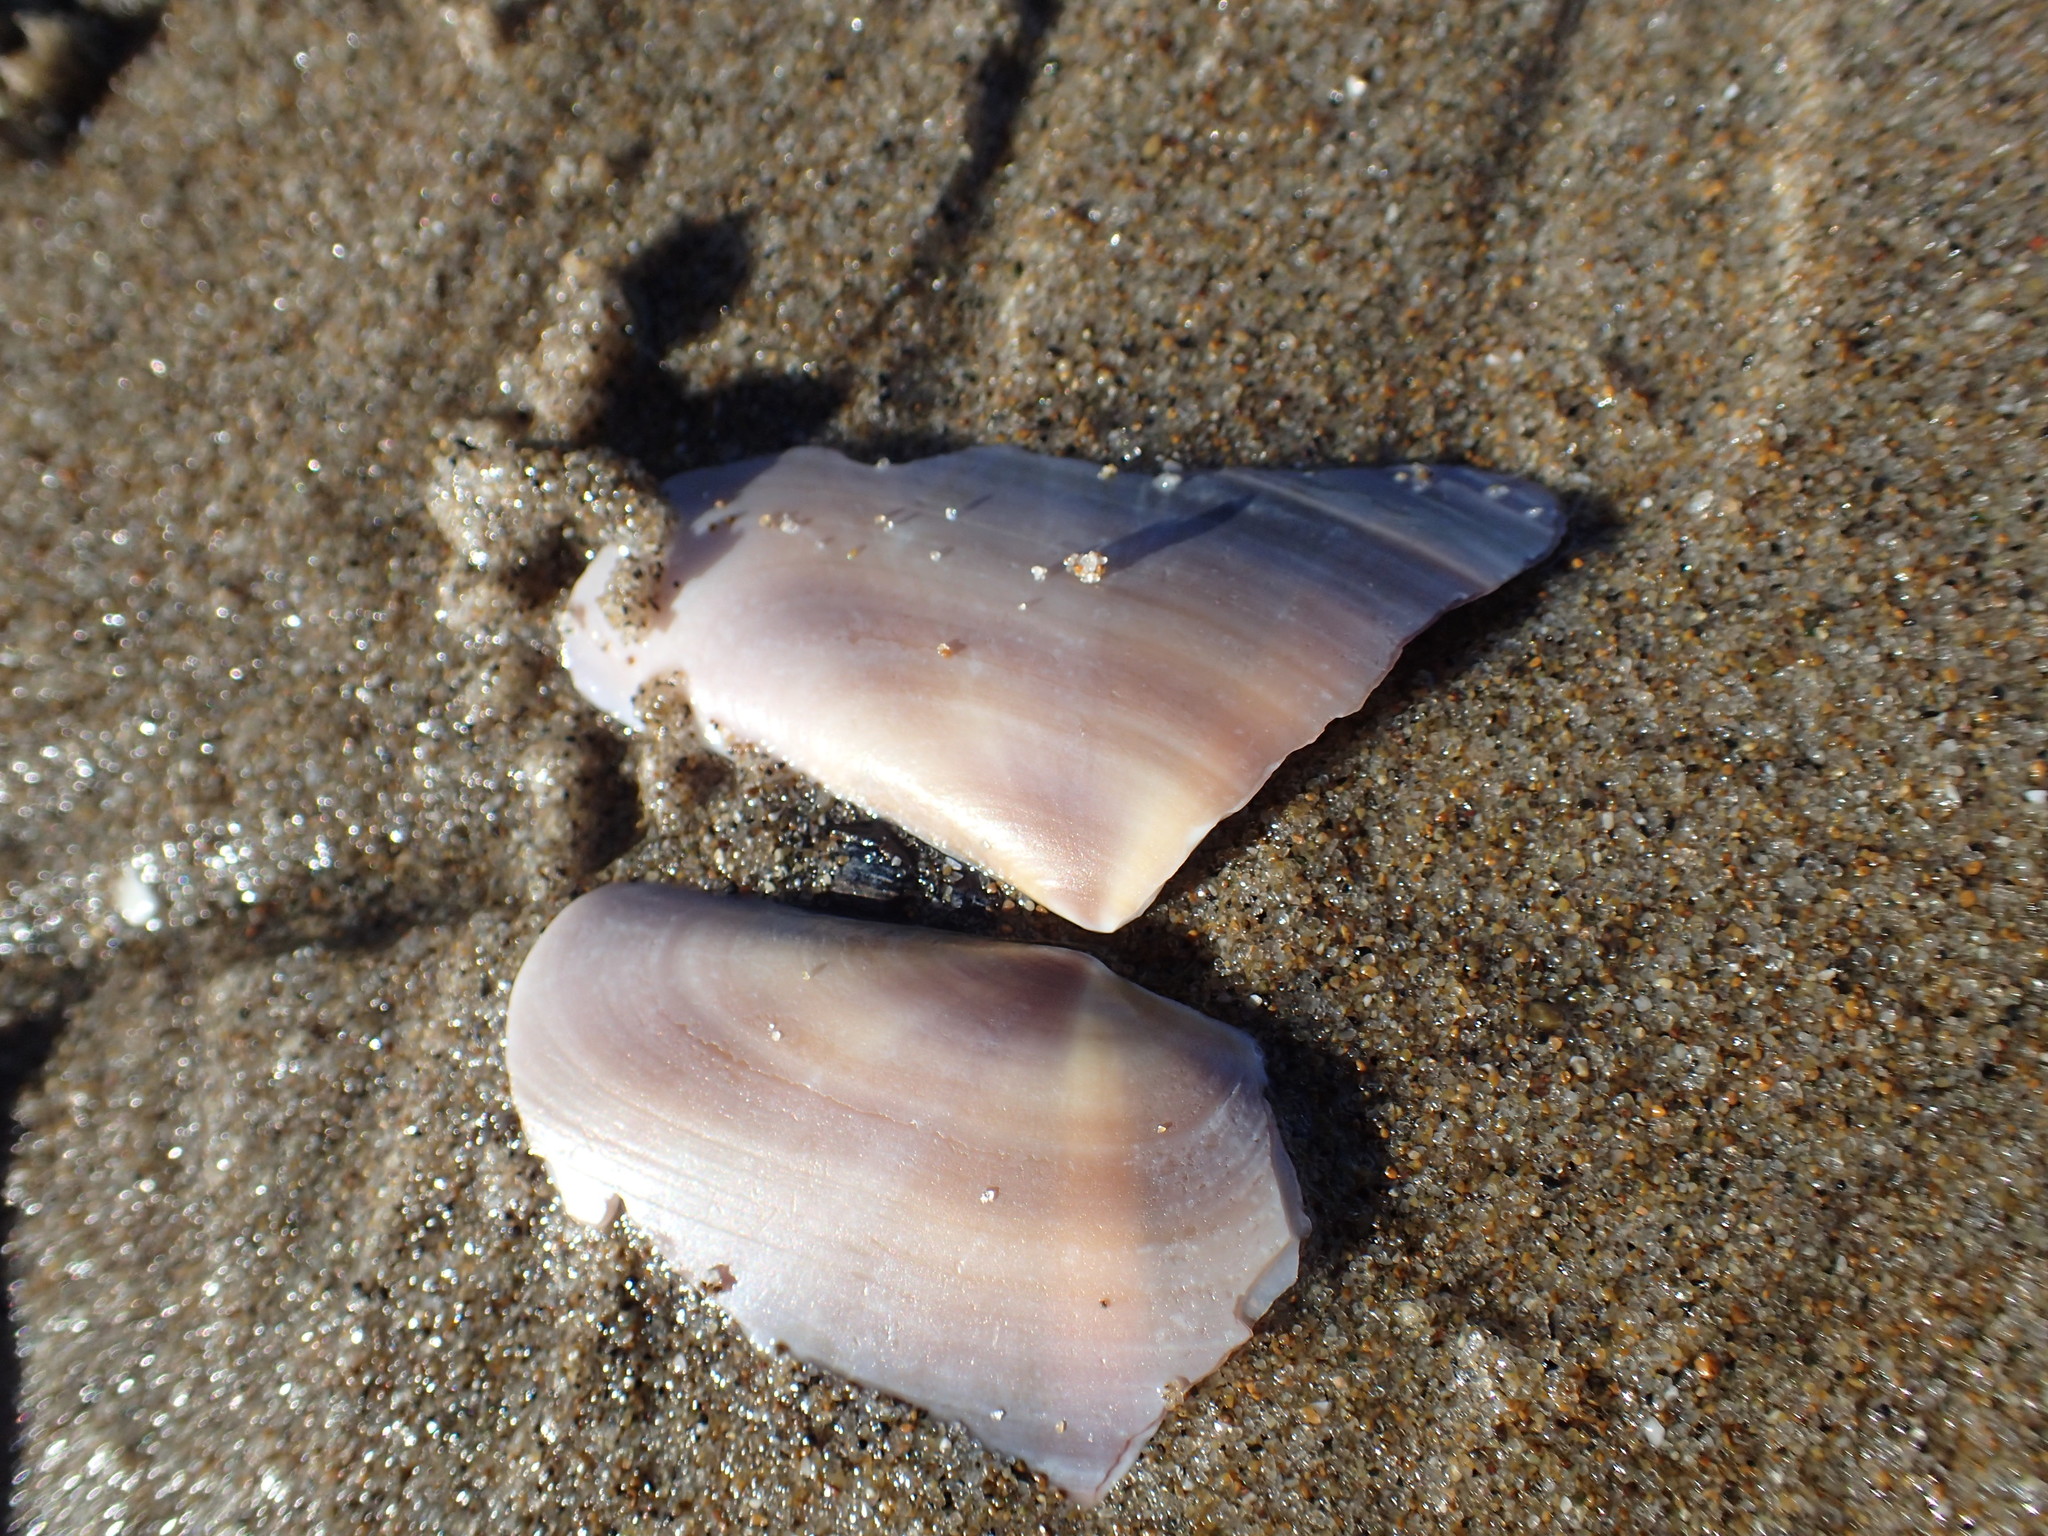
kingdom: Animalia
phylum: Mollusca
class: Bivalvia
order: Adapedonta
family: Pharidae
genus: Siliqua
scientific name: Siliqua patula
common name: Pacific razor clam
